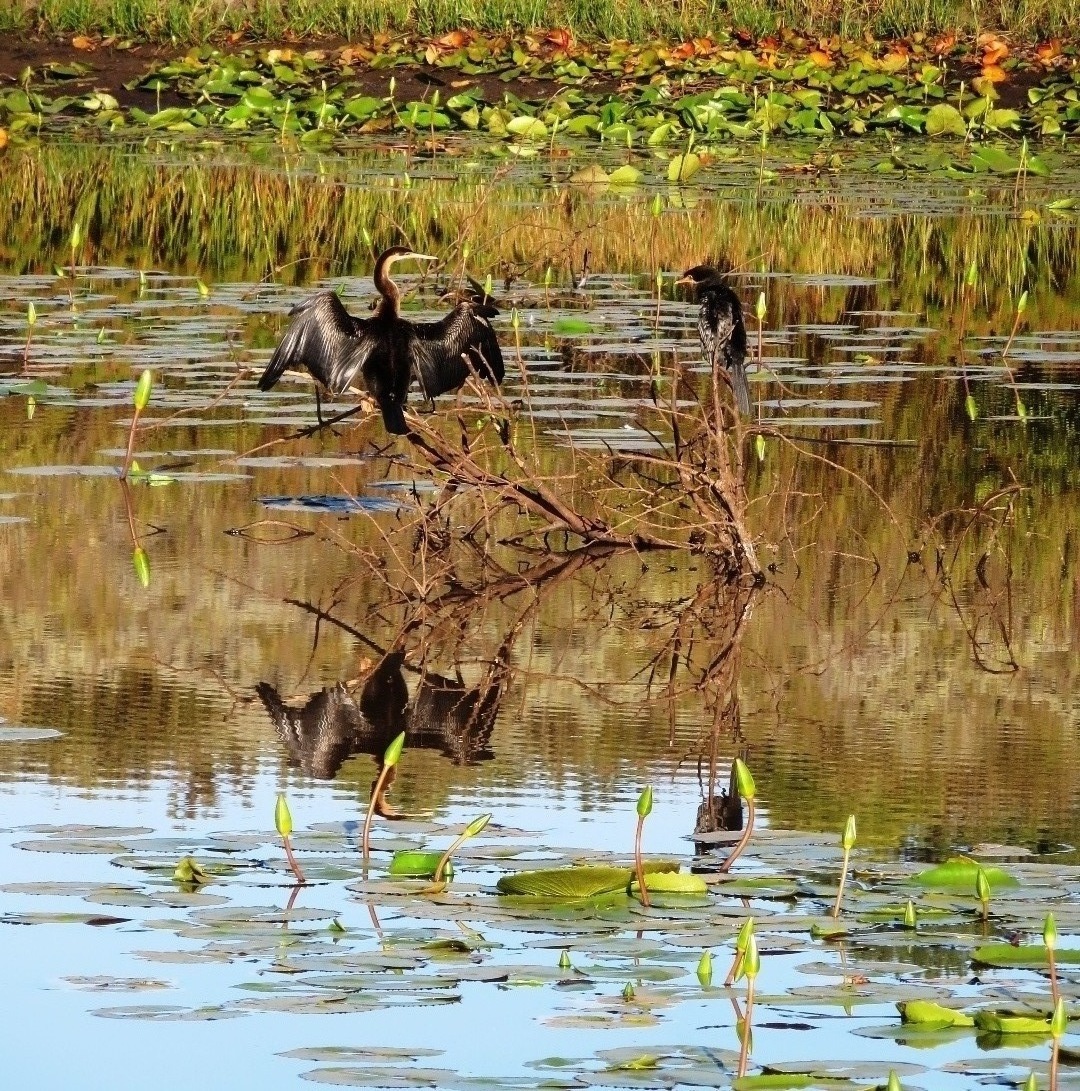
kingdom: Animalia
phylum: Chordata
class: Aves
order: Suliformes
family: Anhingidae
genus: Anhinga
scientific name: Anhinga rufa
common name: African darter
